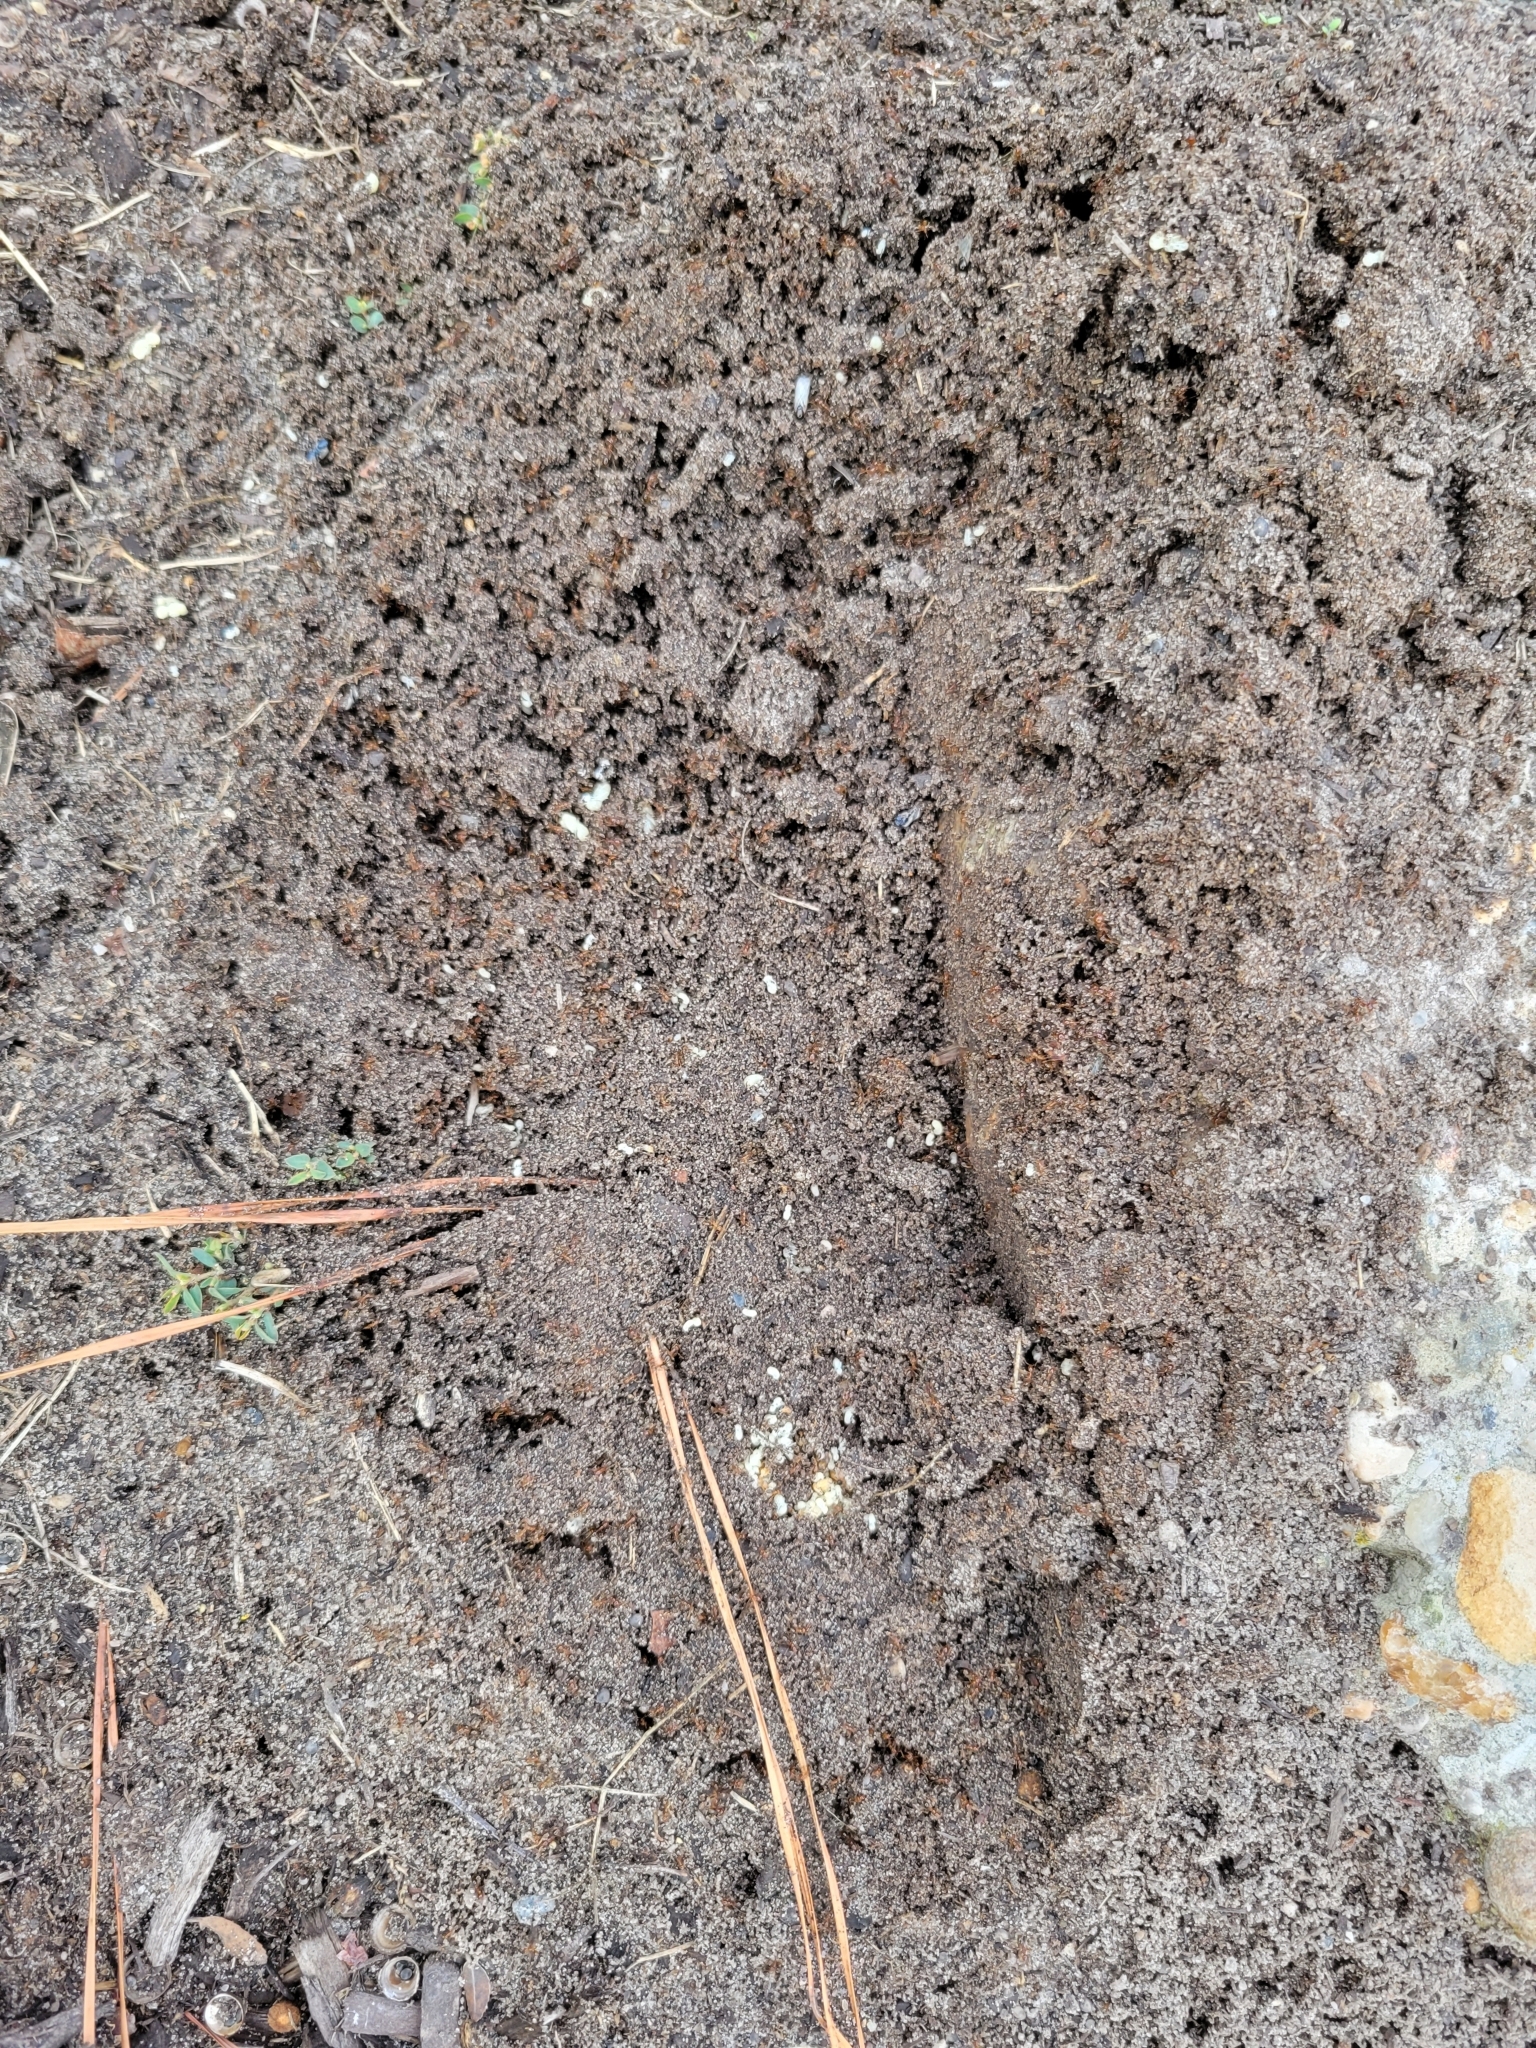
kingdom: Animalia
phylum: Arthropoda
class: Insecta
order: Hymenoptera
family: Formicidae
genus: Solenopsis
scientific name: Solenopsis invicta
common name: Red imported fire ant
